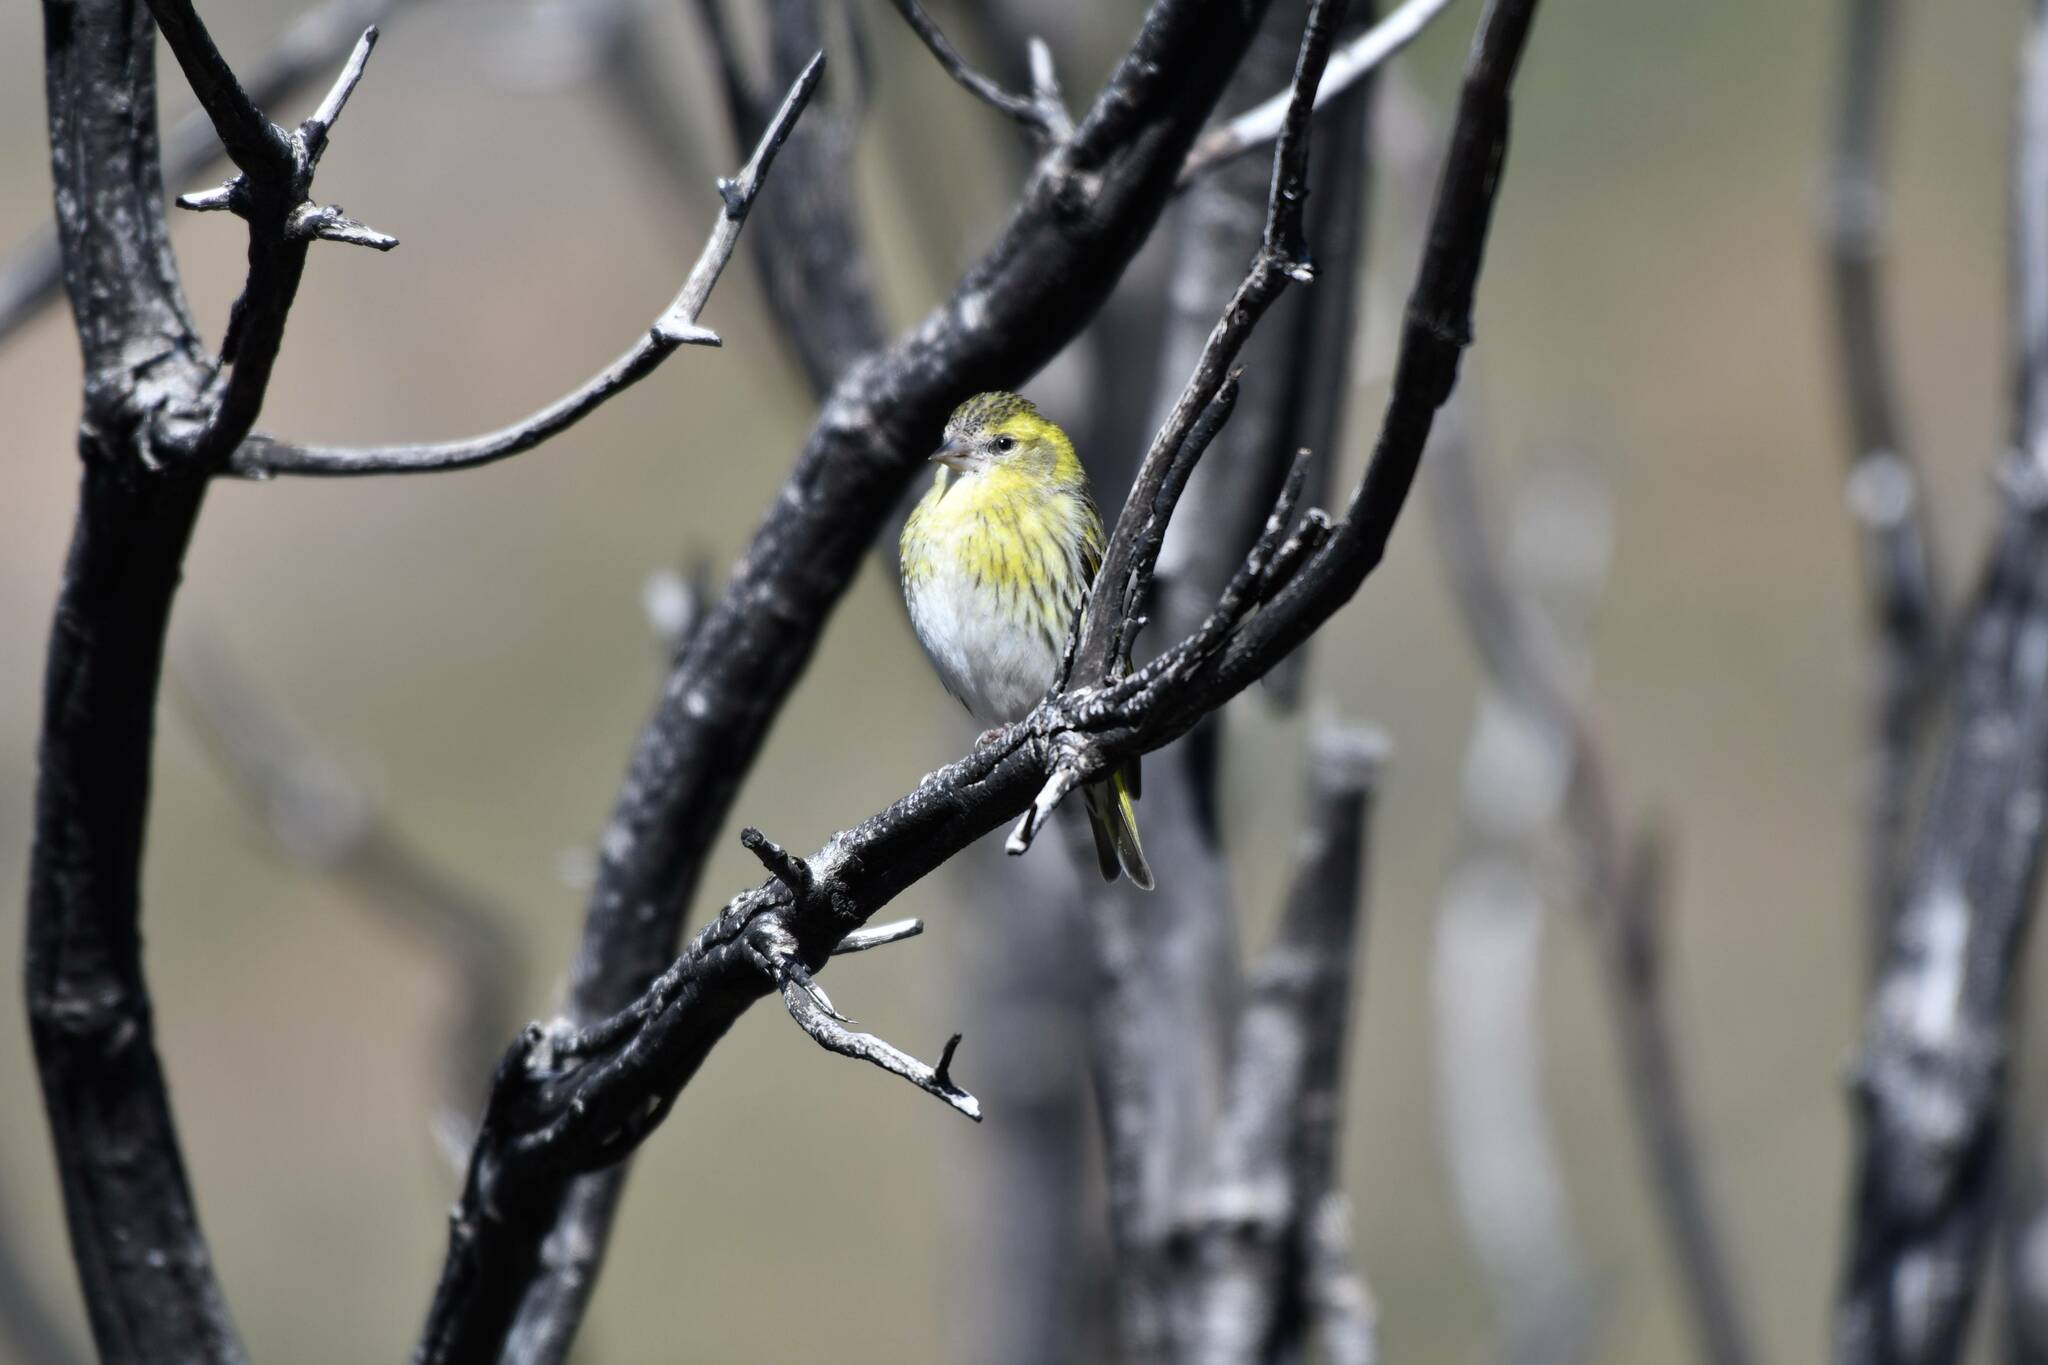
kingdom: Animalia
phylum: Chordata
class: Aves
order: Passeriformes
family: Fringillidae
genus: Spinus
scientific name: Spinus spinus
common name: Eurasian siskin
